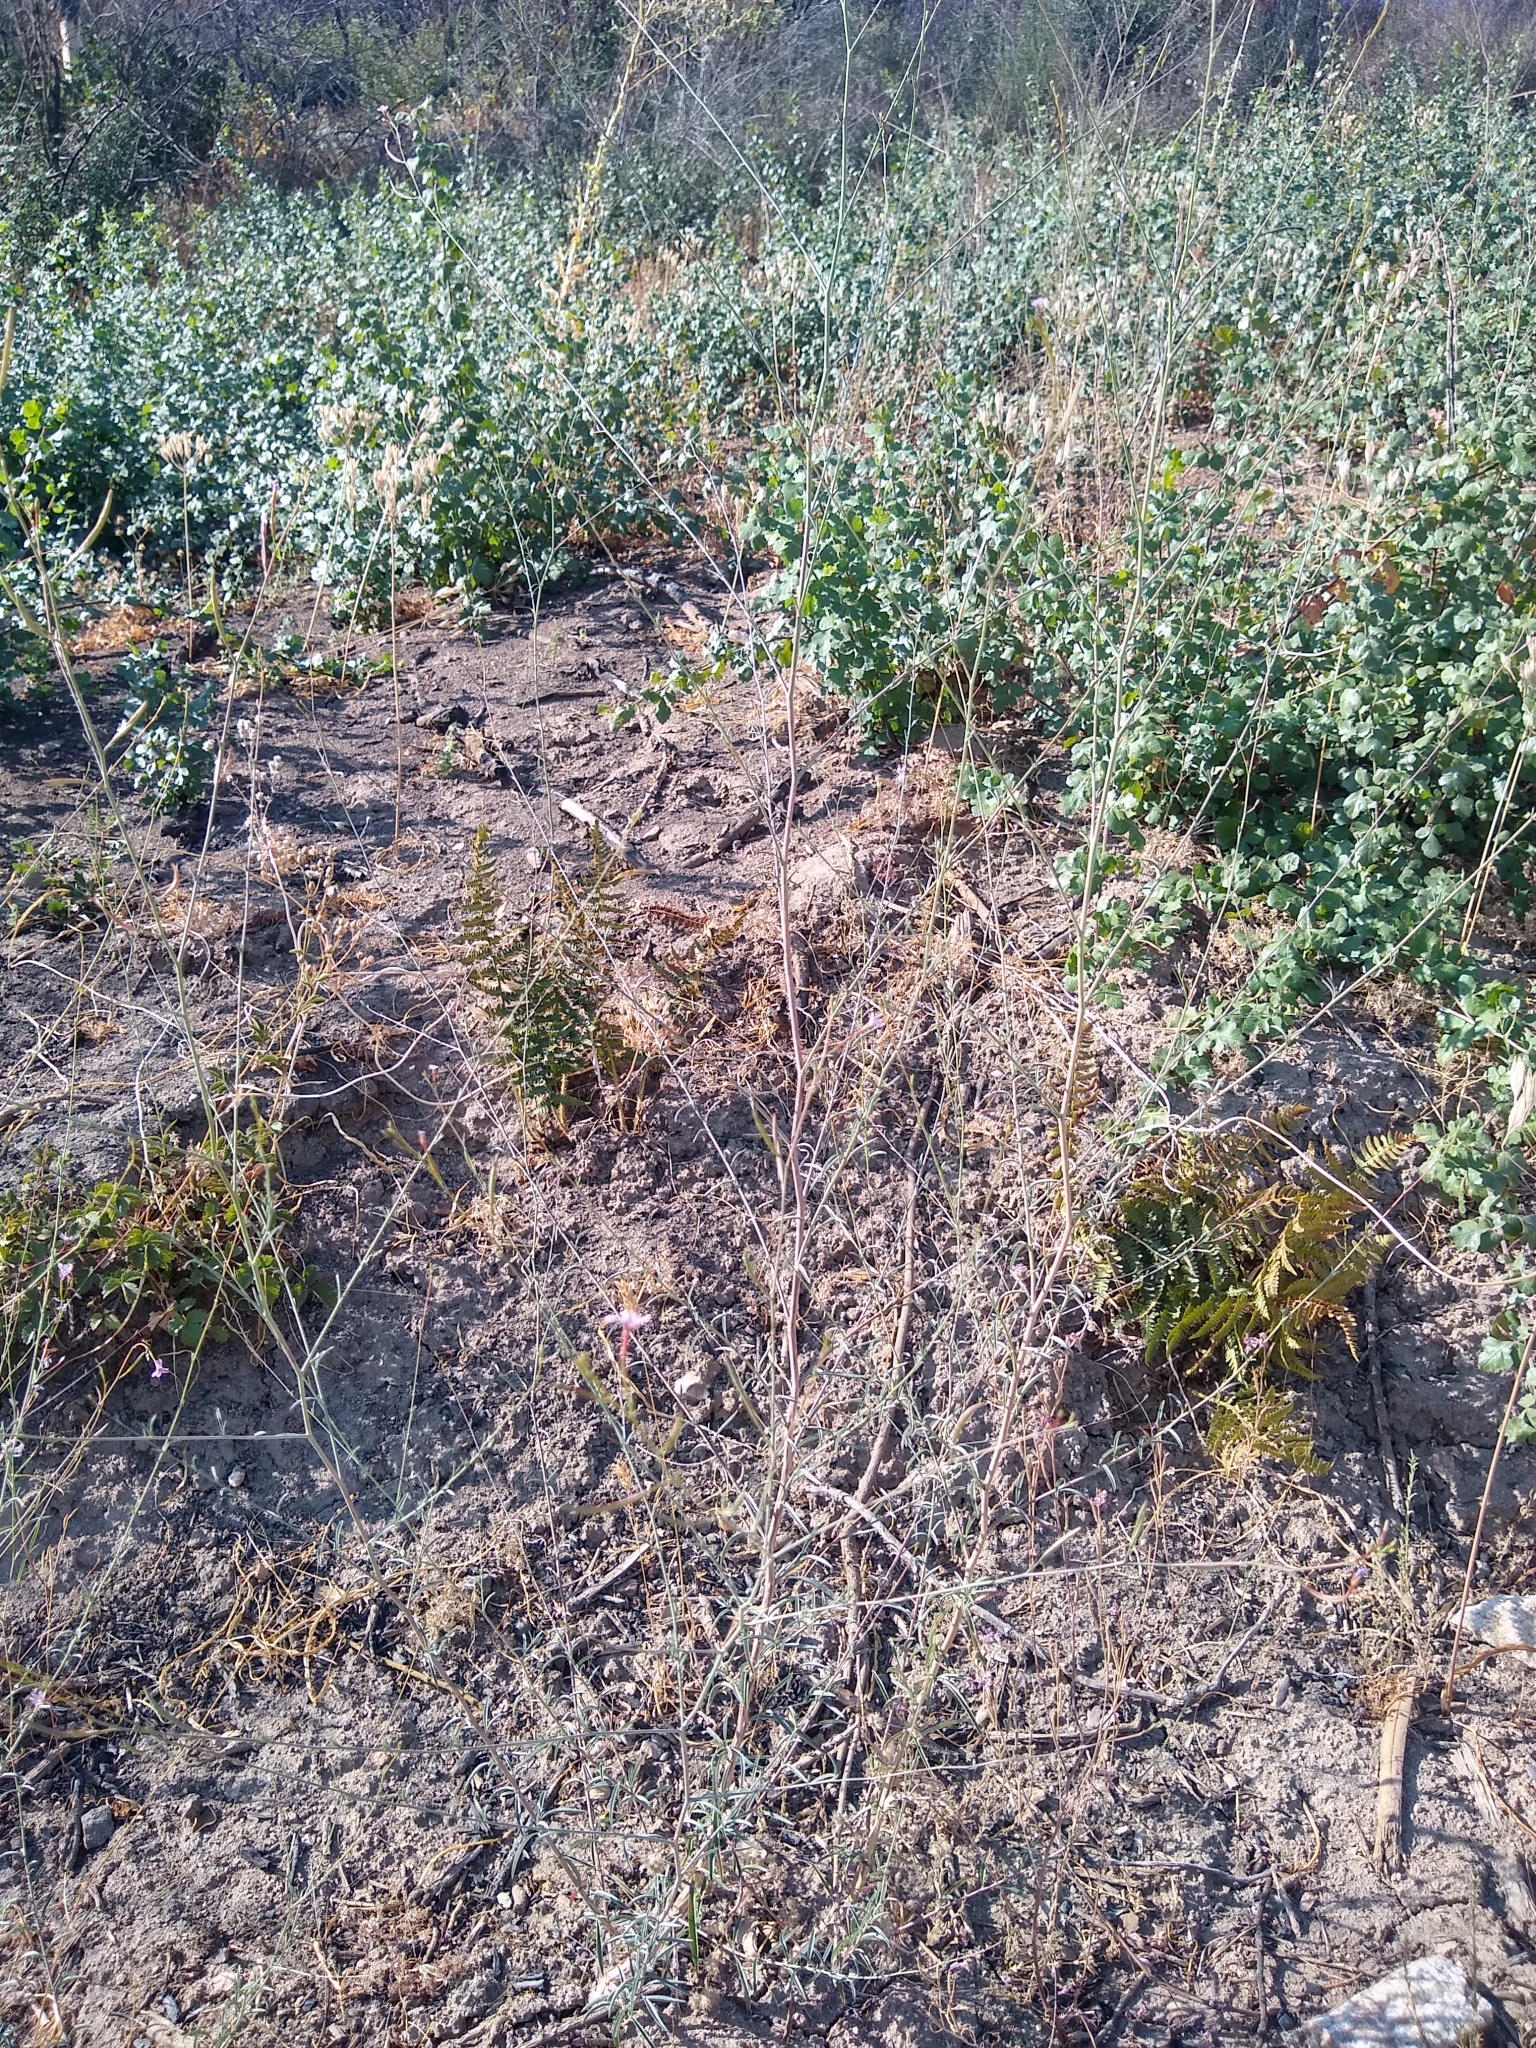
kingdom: Plantae
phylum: Tracheophyta
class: Magnoliopsida
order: Myrtales
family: Onagraceae
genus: Epilobium
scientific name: Epilobium brachycarpum
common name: Annual willowherb
